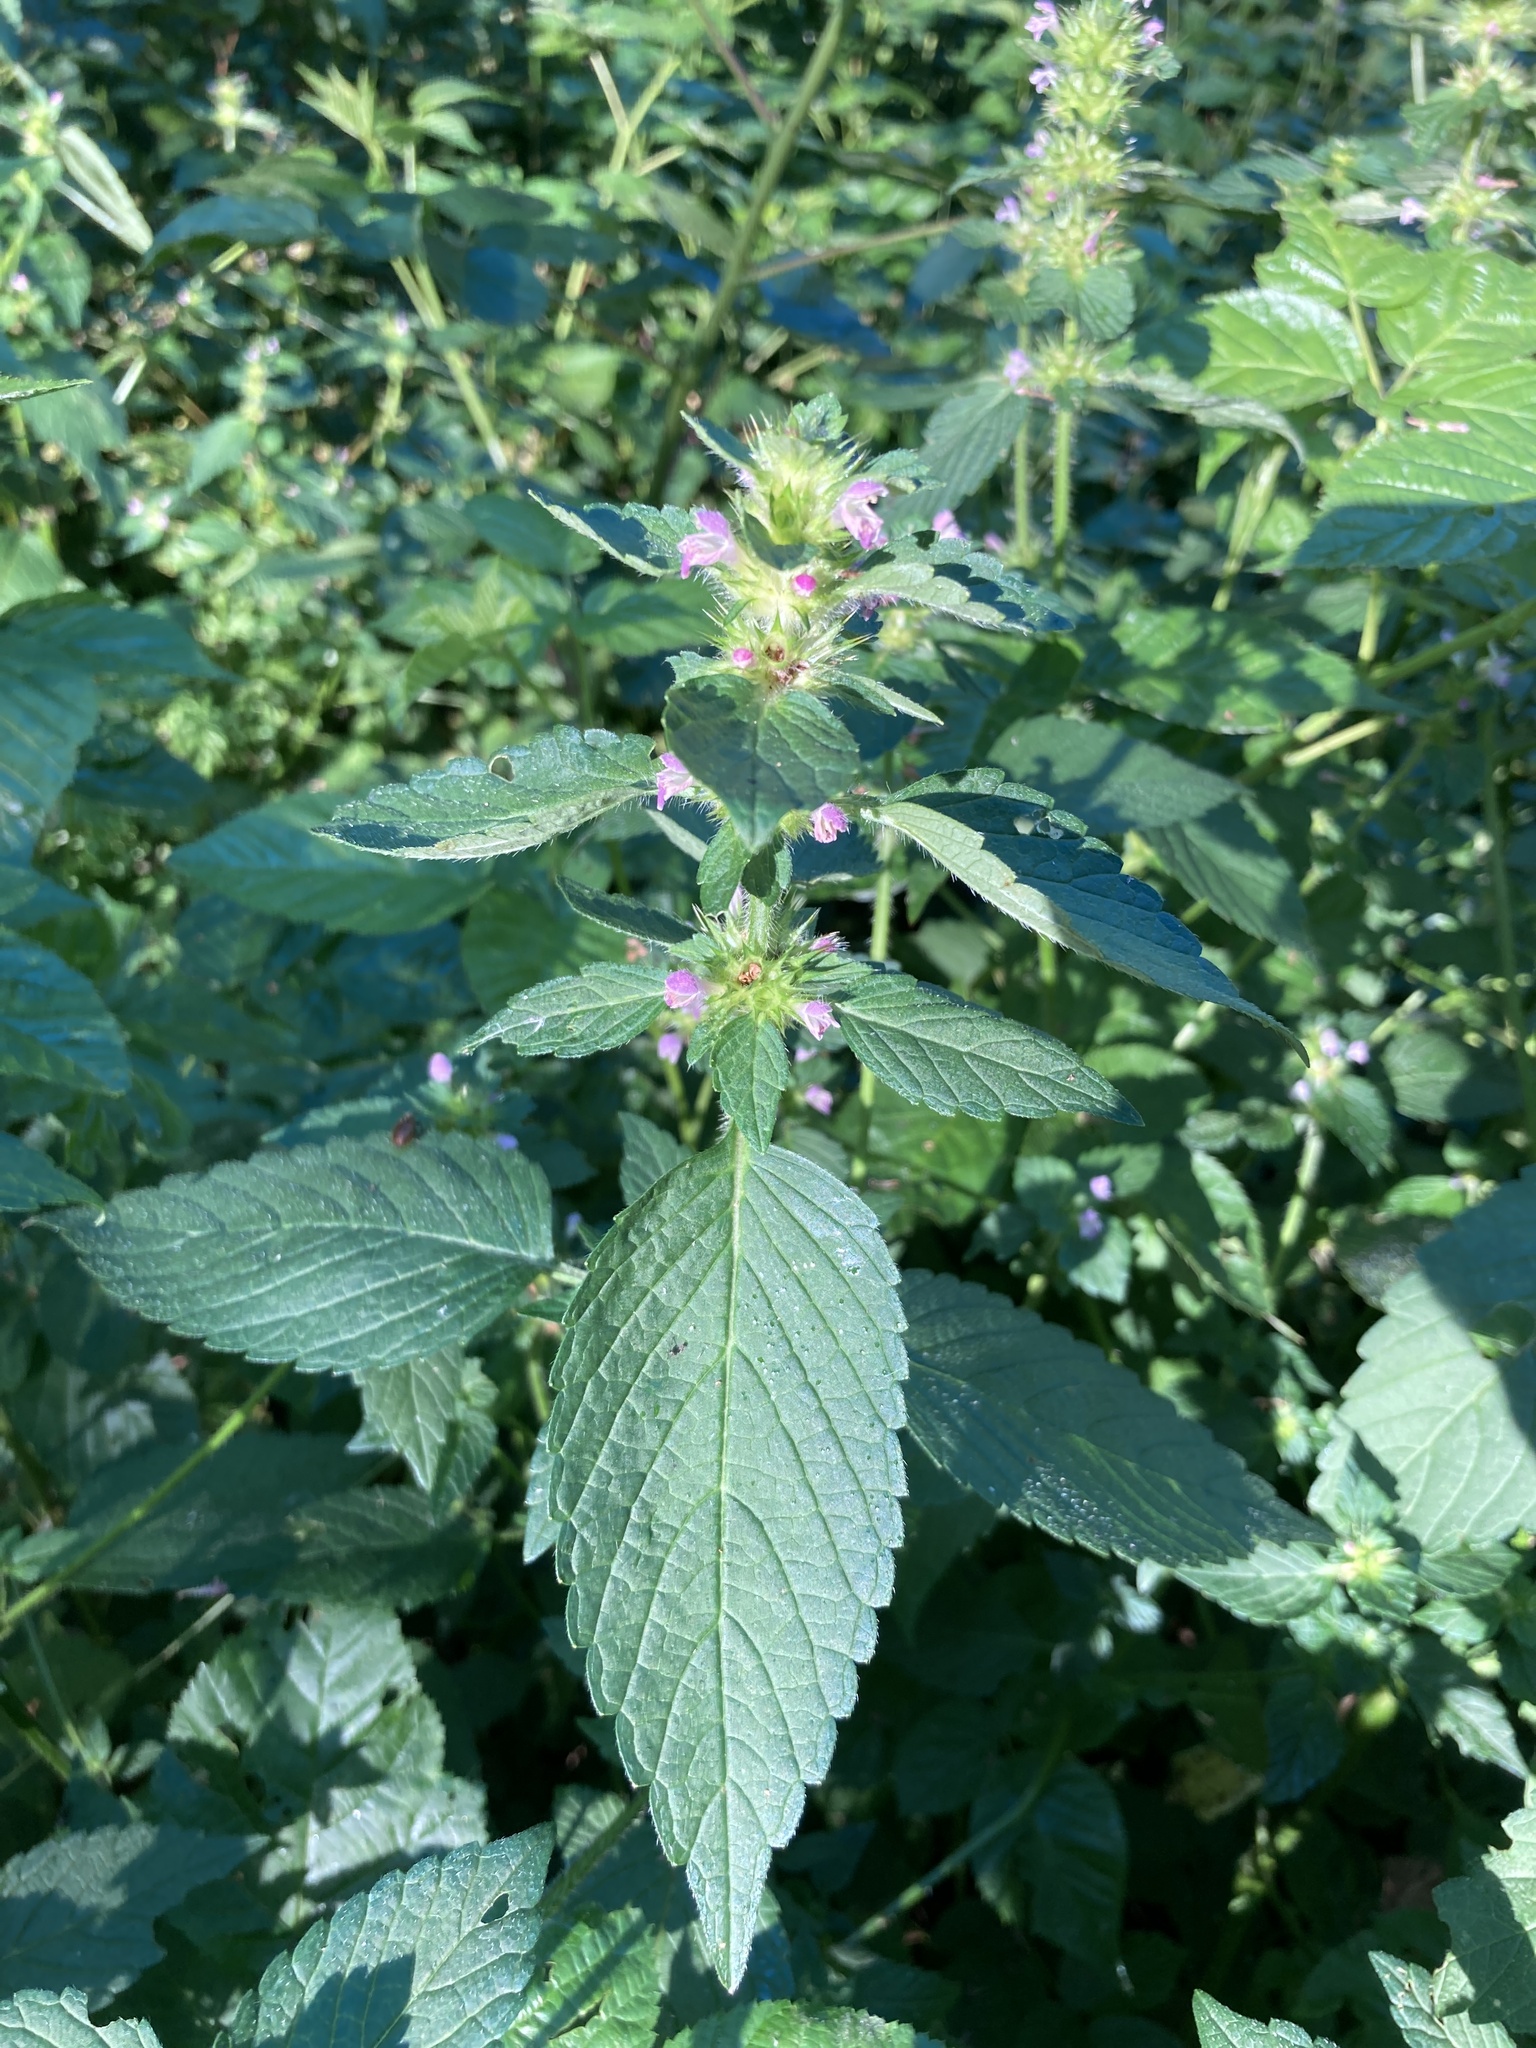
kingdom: Plantae
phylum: Tracheophyta
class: Magnoliopsida
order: Lamiales
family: Lamiaceae
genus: Galeopsis
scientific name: Galeopsis bifida
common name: Bifid hemp-nettle
